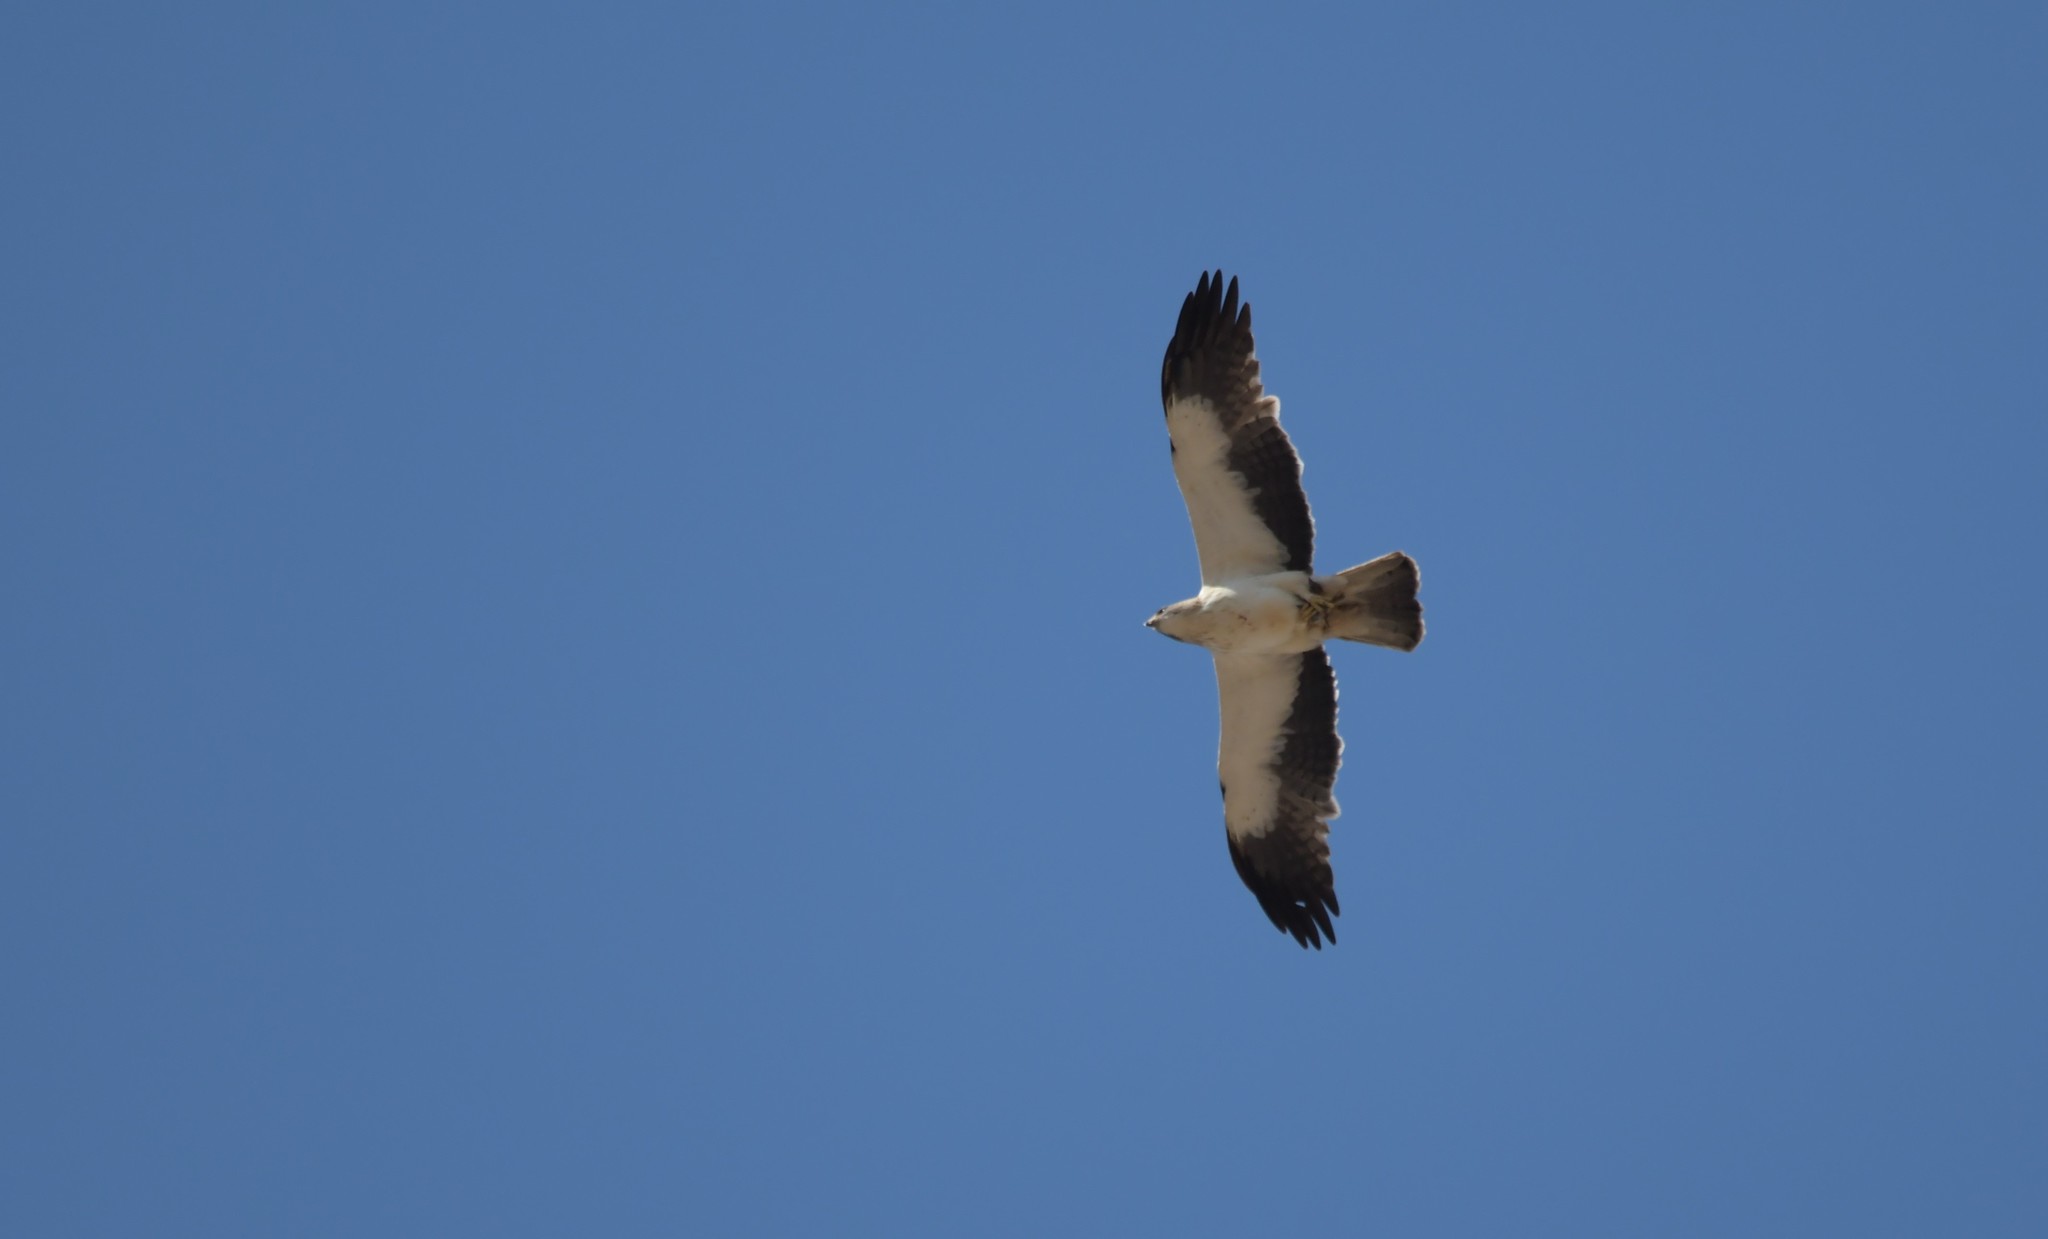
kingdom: Animalia
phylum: Chordata
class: Aves
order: Accipitriformes
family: Accipitridae
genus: Hieraaetus
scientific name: Hieraaetus pennatus
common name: Booted eagle
